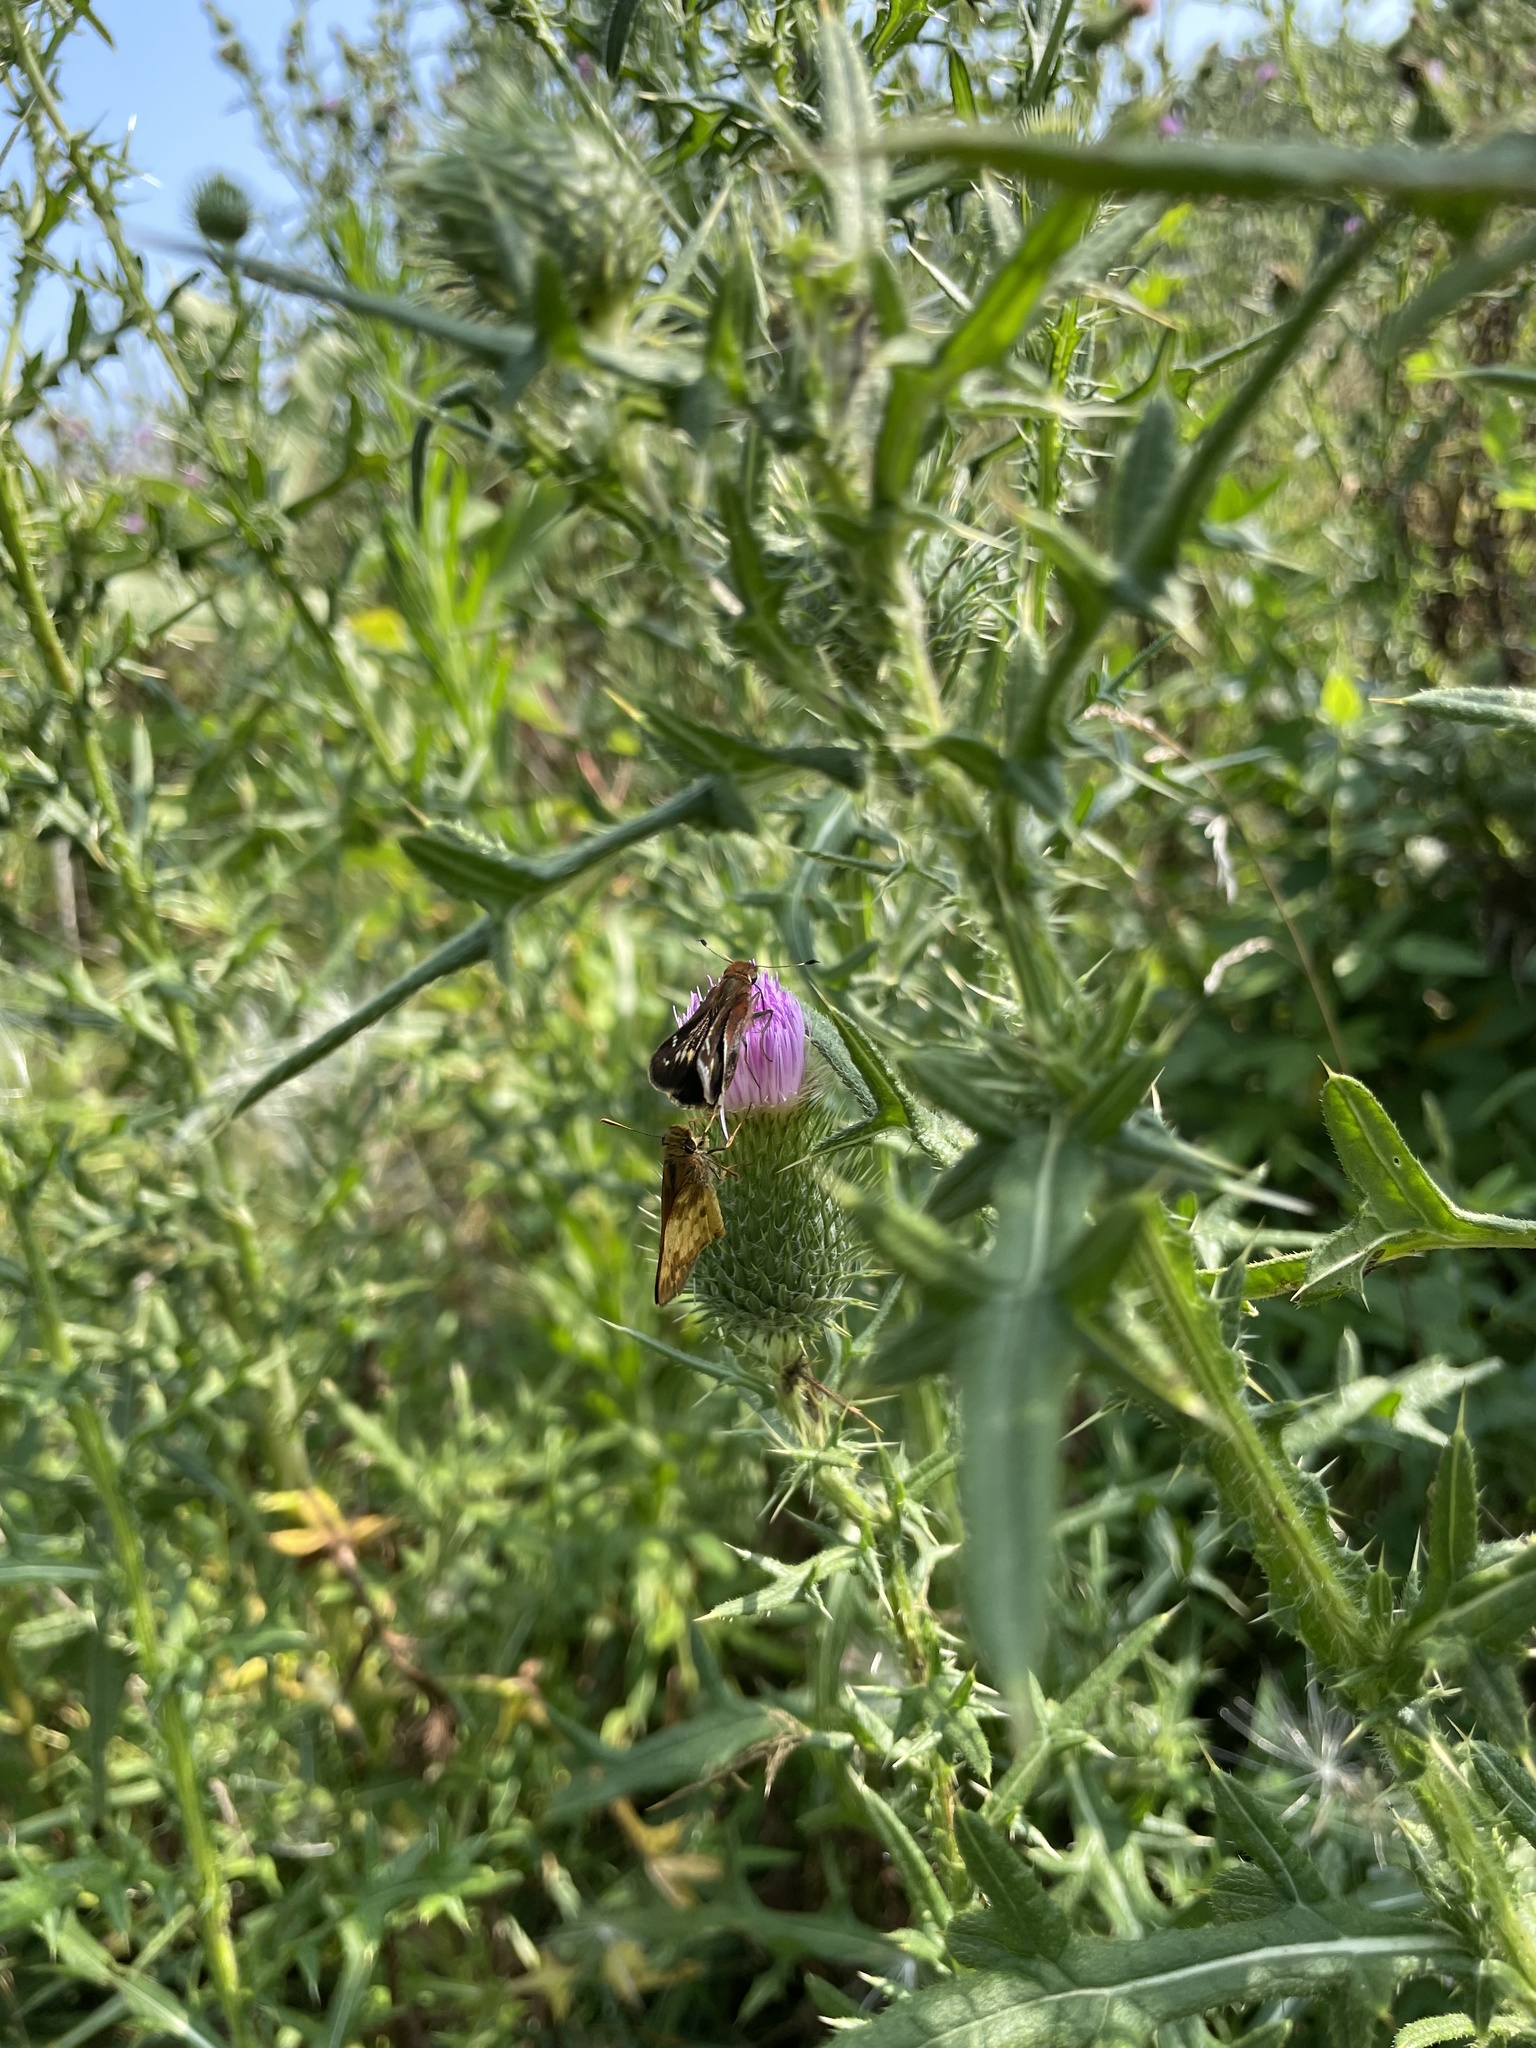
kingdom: Animalia
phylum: Arthropoda
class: Insecta
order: Lepidoptera
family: Hesperiidae
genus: Lon
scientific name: Lon zabulon
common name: Zabulon skipper
